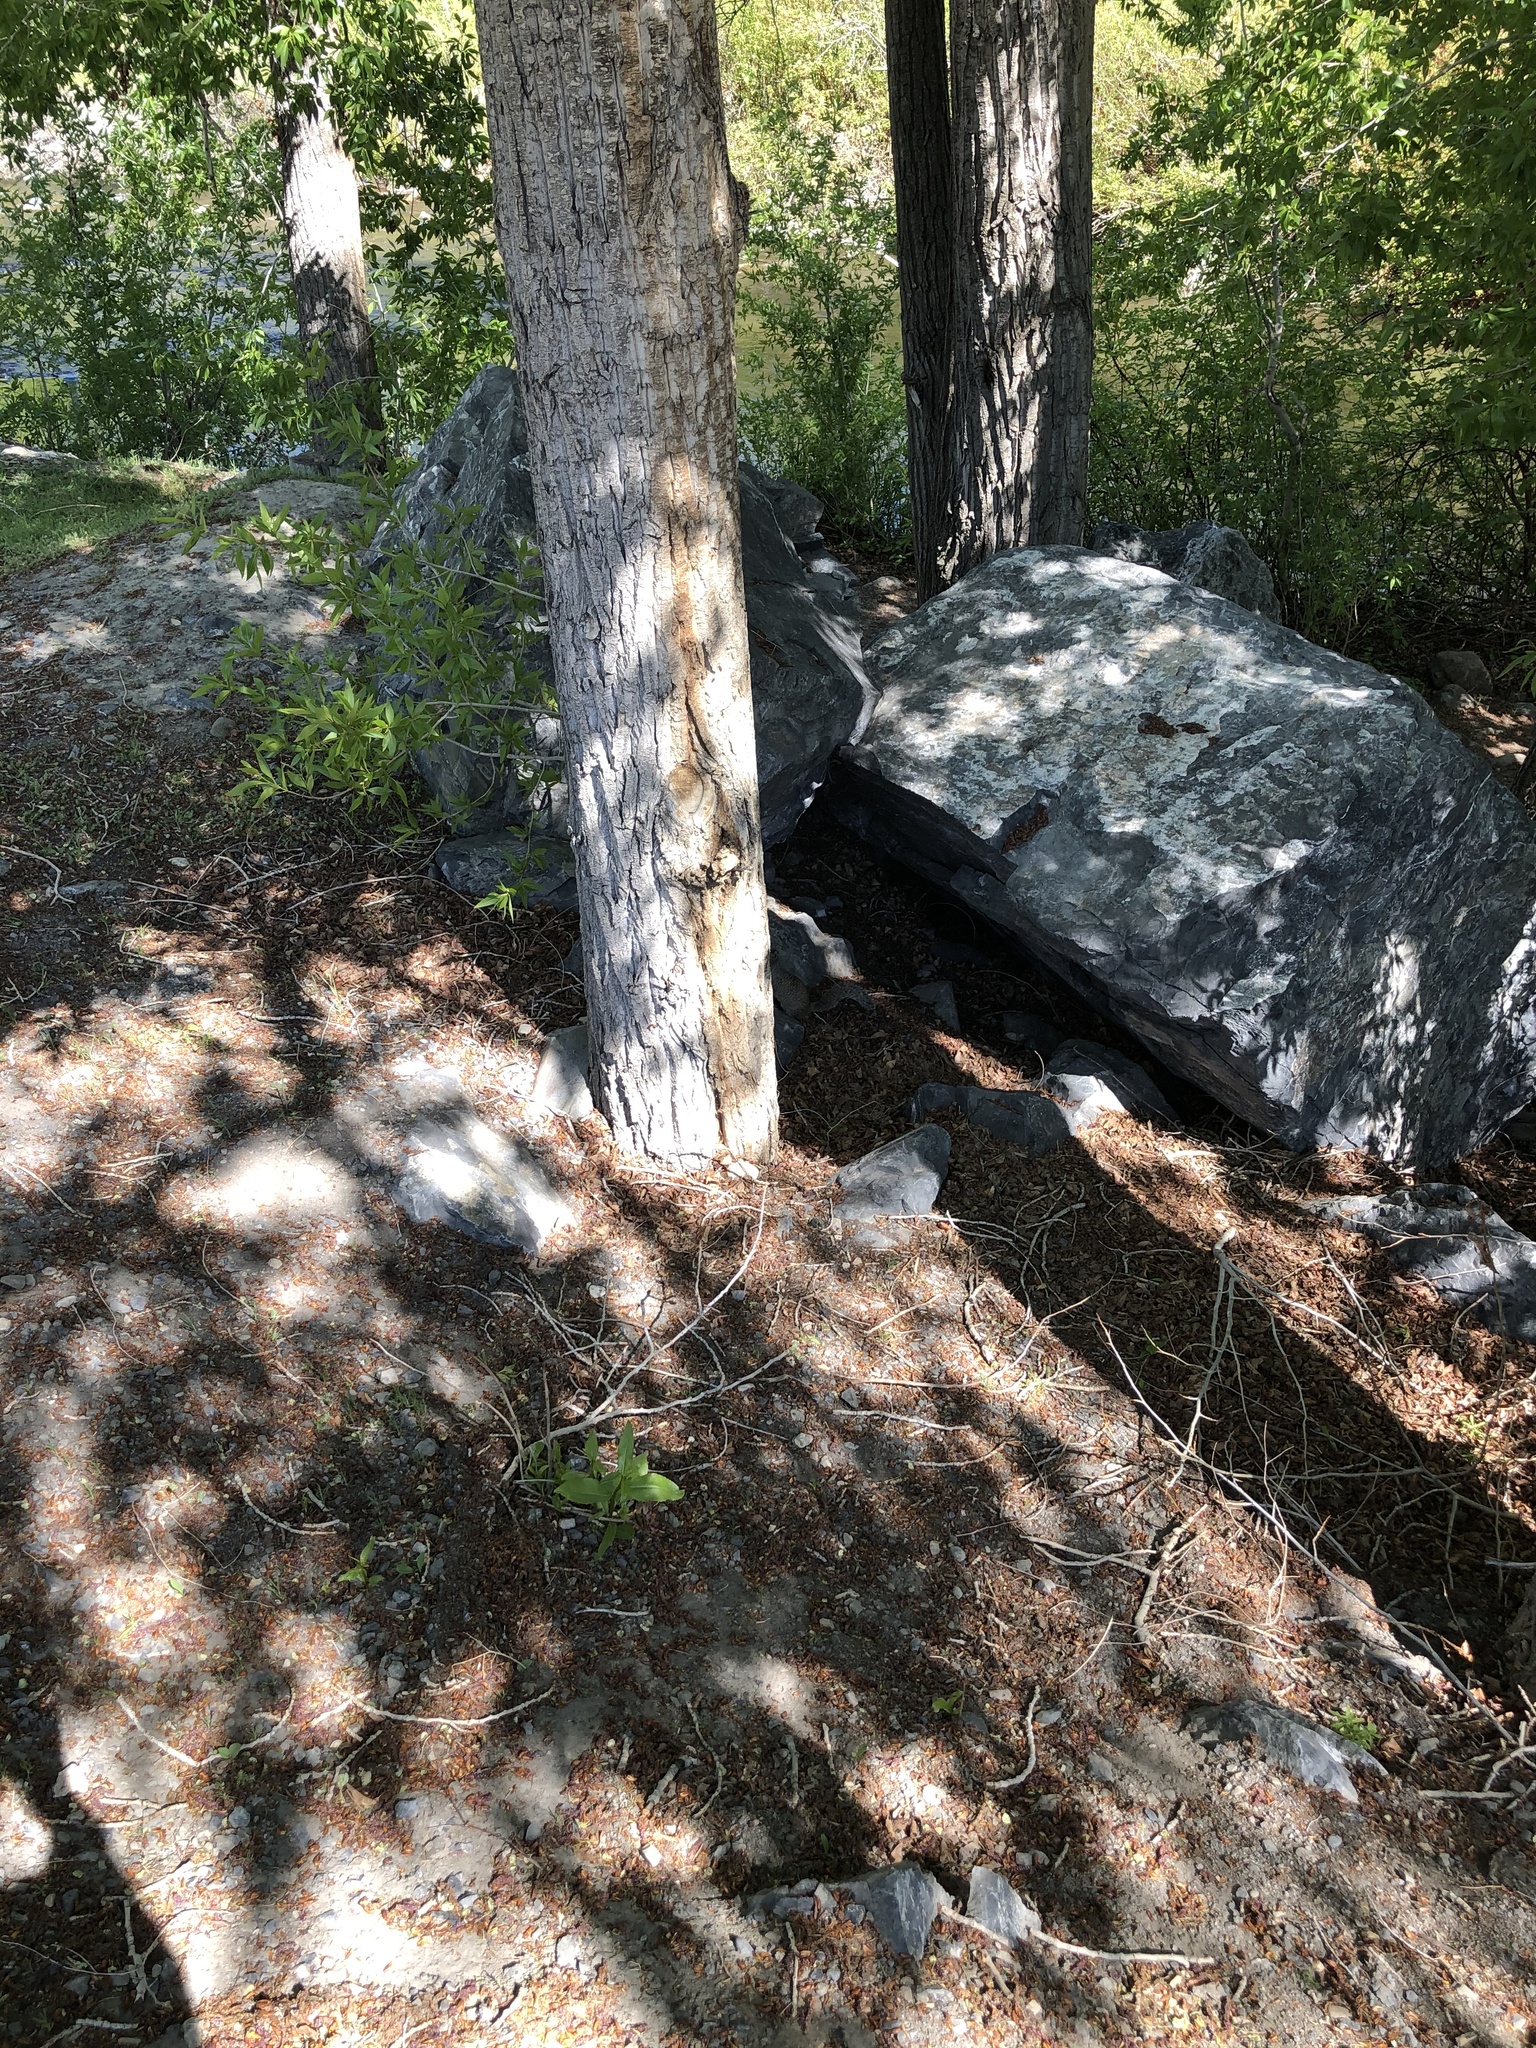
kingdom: Animalia
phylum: Chordata
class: Mammalia
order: Rodentia
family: Sciuridae
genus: Otospermophilus
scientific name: Otospermophilus variegatus
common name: Rock squirrel
